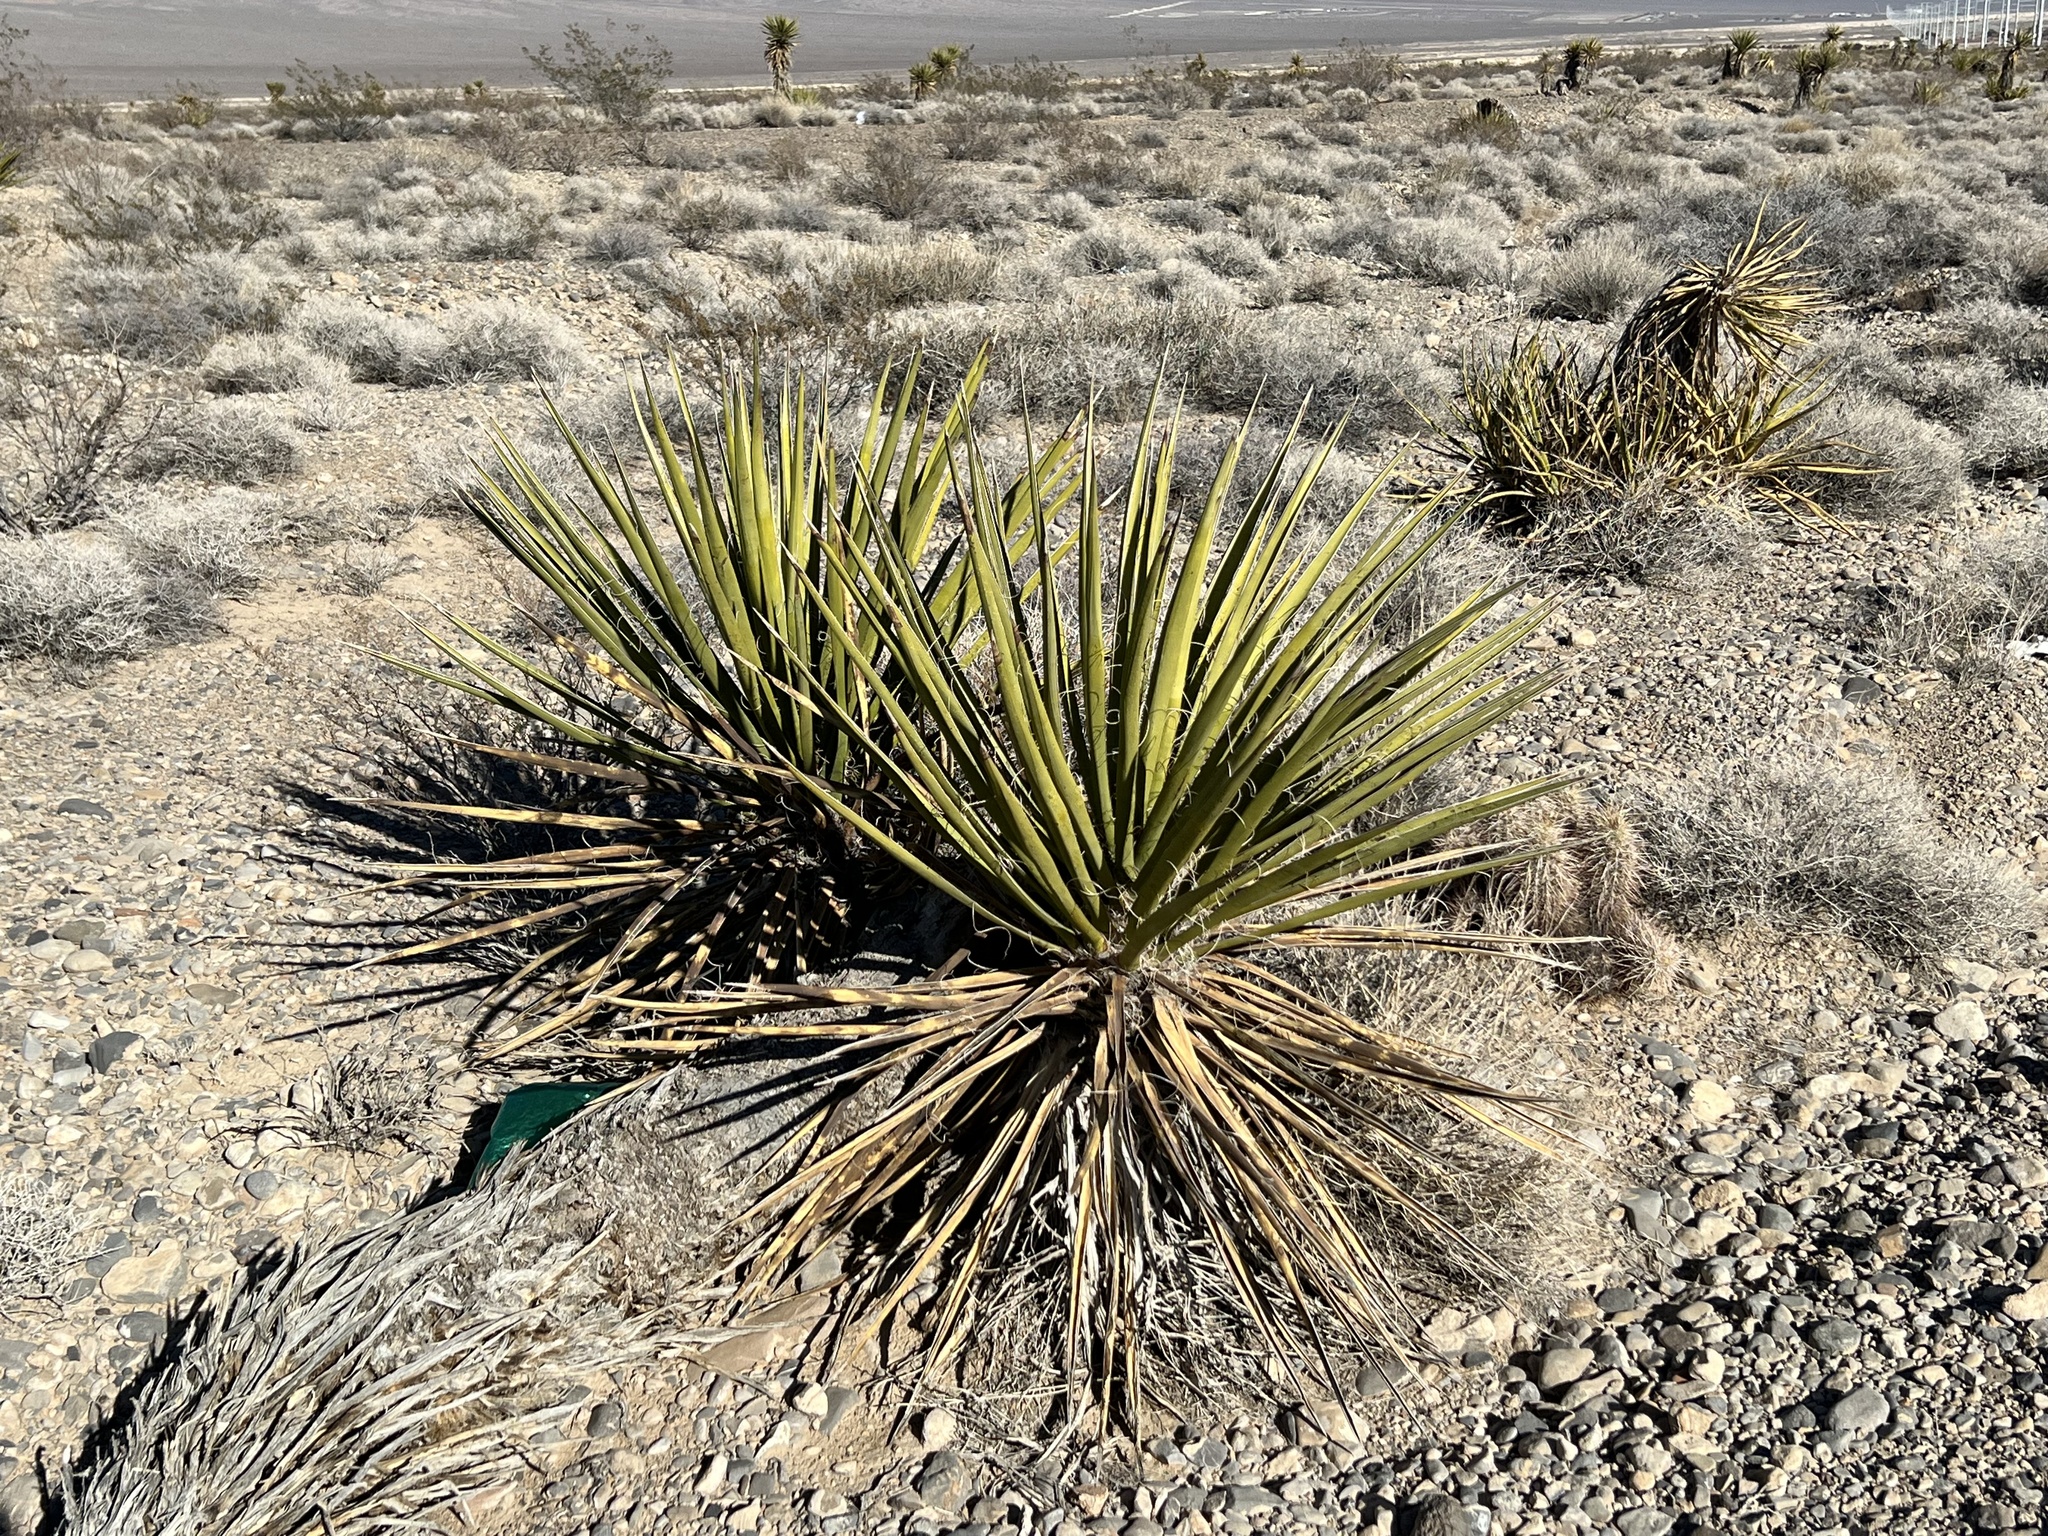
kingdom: Plantae
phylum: Tracheophyta
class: Liliopsida
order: Asparagales
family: Asparagaceae
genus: Yucca
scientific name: Yucca schidigera
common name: Mojave yucca
